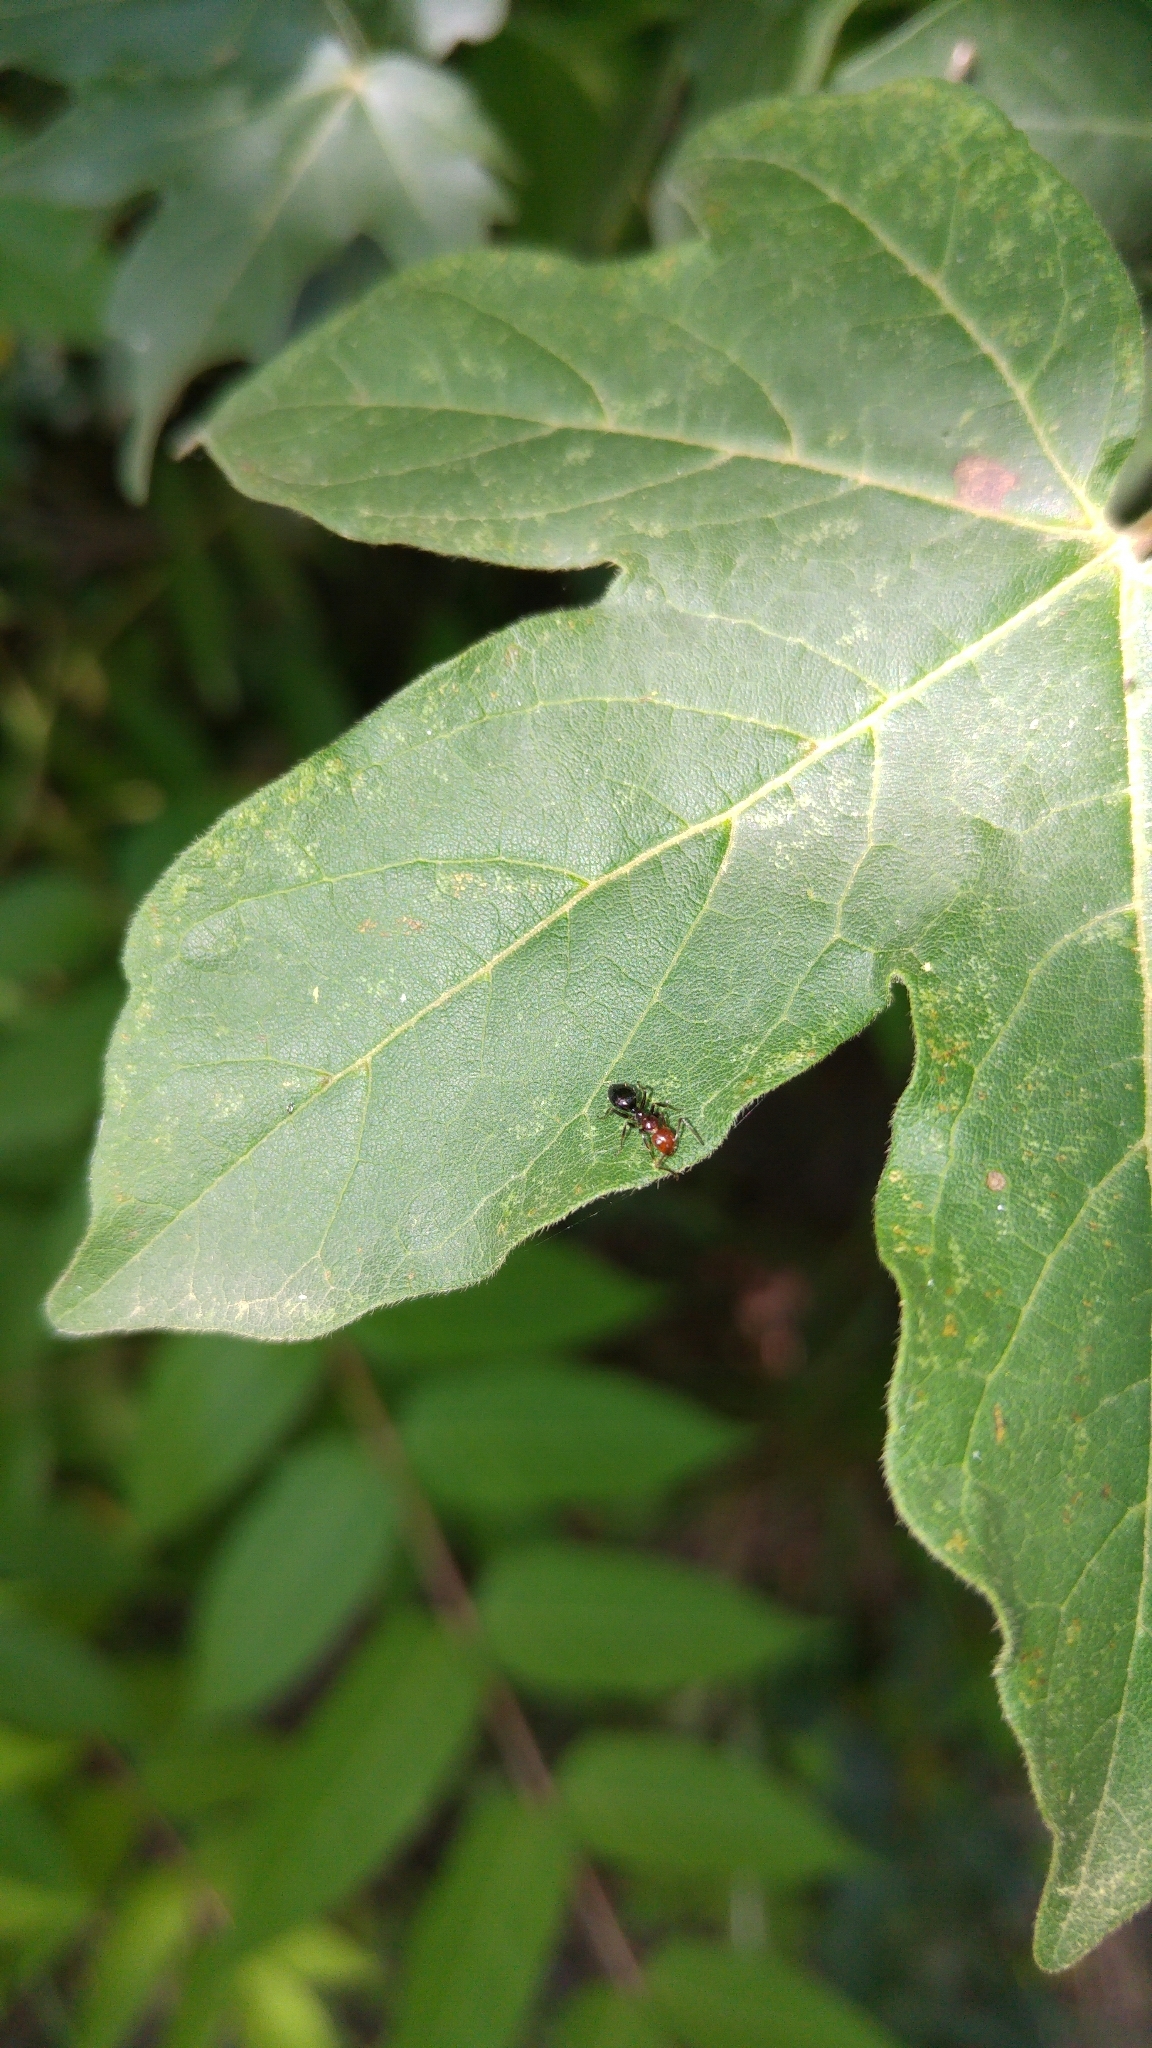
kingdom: Animalia
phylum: Arthropoda
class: Insecta
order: Hymenoptera
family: Formicidae
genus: Camponotus
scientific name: Camponotus lateralis
